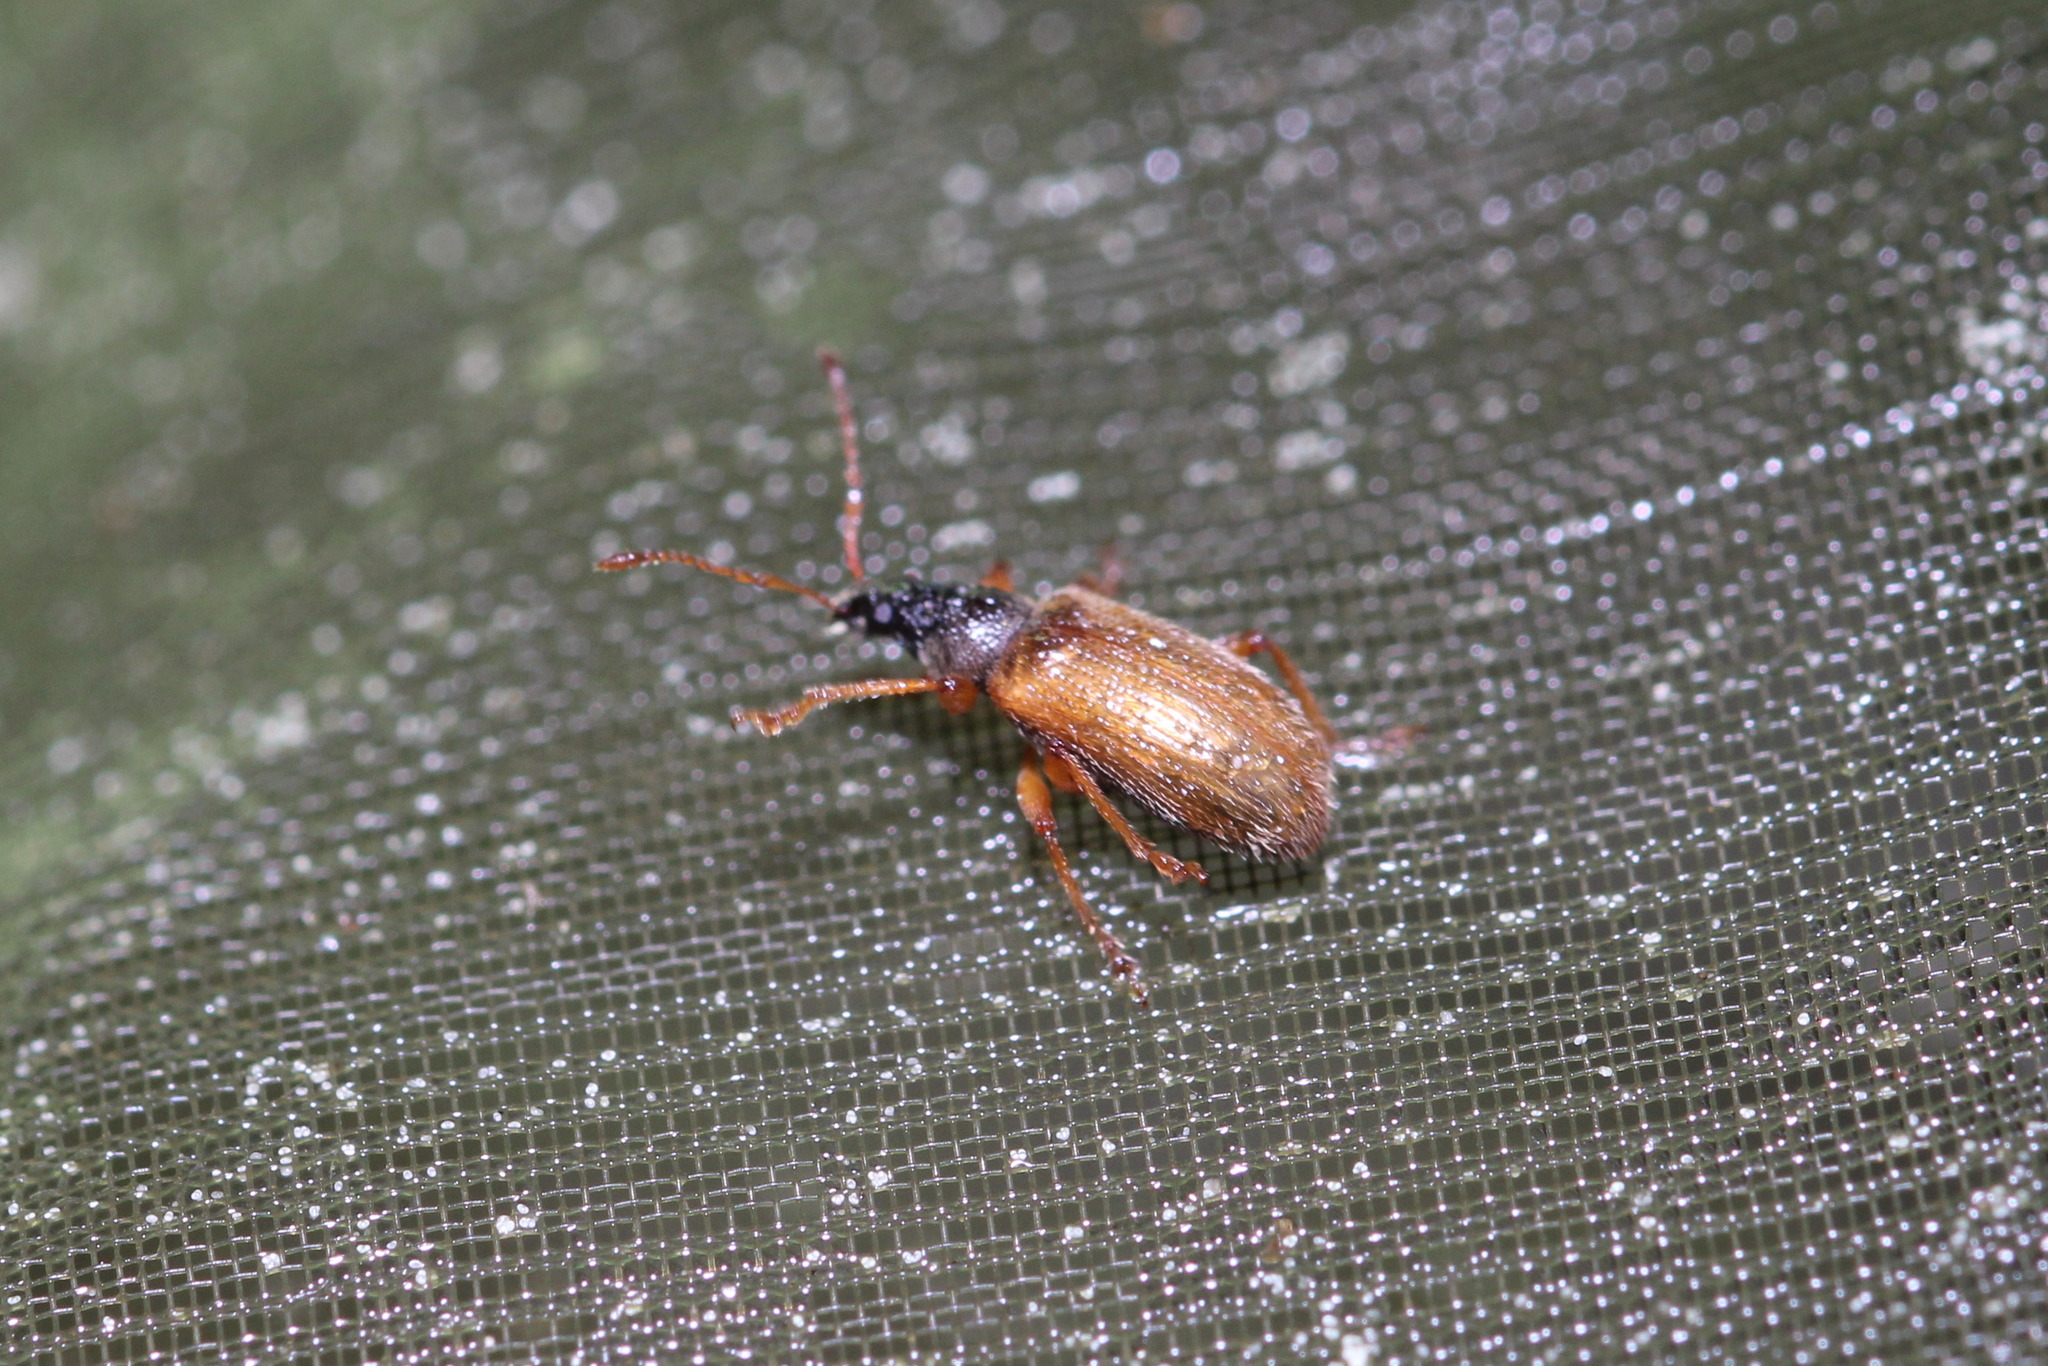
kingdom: Animalia
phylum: Arthropoda
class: Insecta
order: Coleoptera
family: Curculionidae
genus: Phyllobius
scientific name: Phyllobius oblongus
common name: Brown leaf weevil
